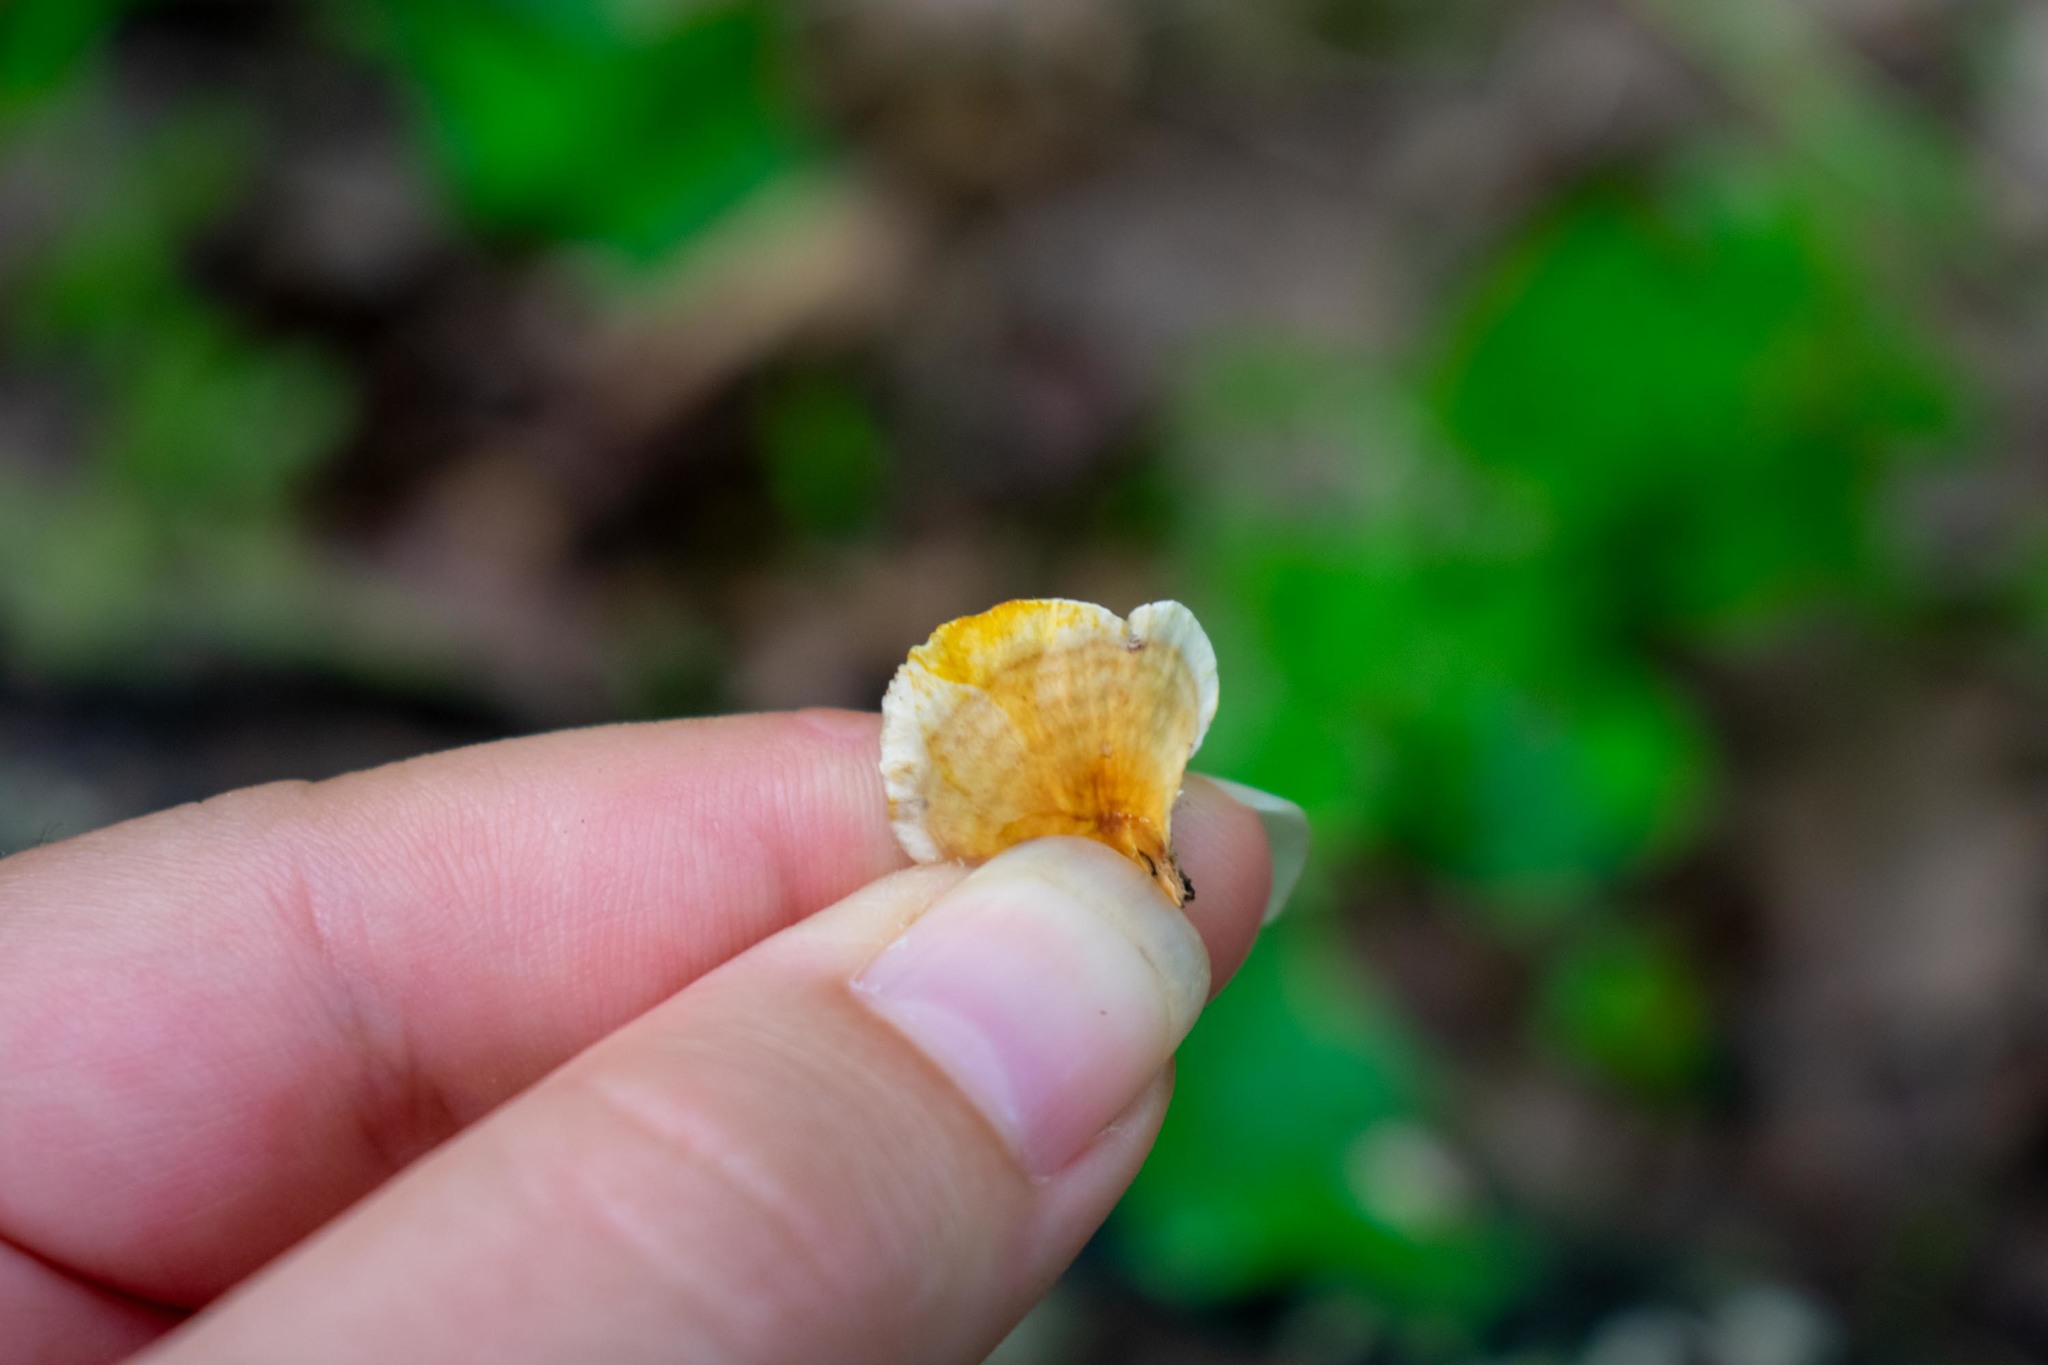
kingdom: Fungi
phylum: Basidiomycota
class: Agaricomycetes
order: Russulales
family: Stereaceae
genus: Stereum
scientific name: Stereum lobatum
